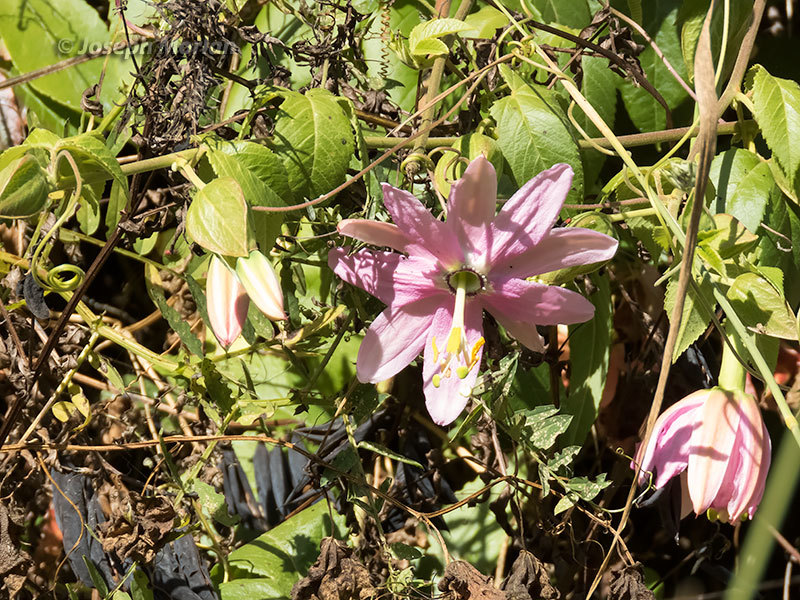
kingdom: Plantae
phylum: Tracheophyta
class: Magnoliopsida
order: Malpighiales
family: Passifloraceae
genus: Passiflora
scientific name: Passiflora tarminiana
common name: Banana poka
